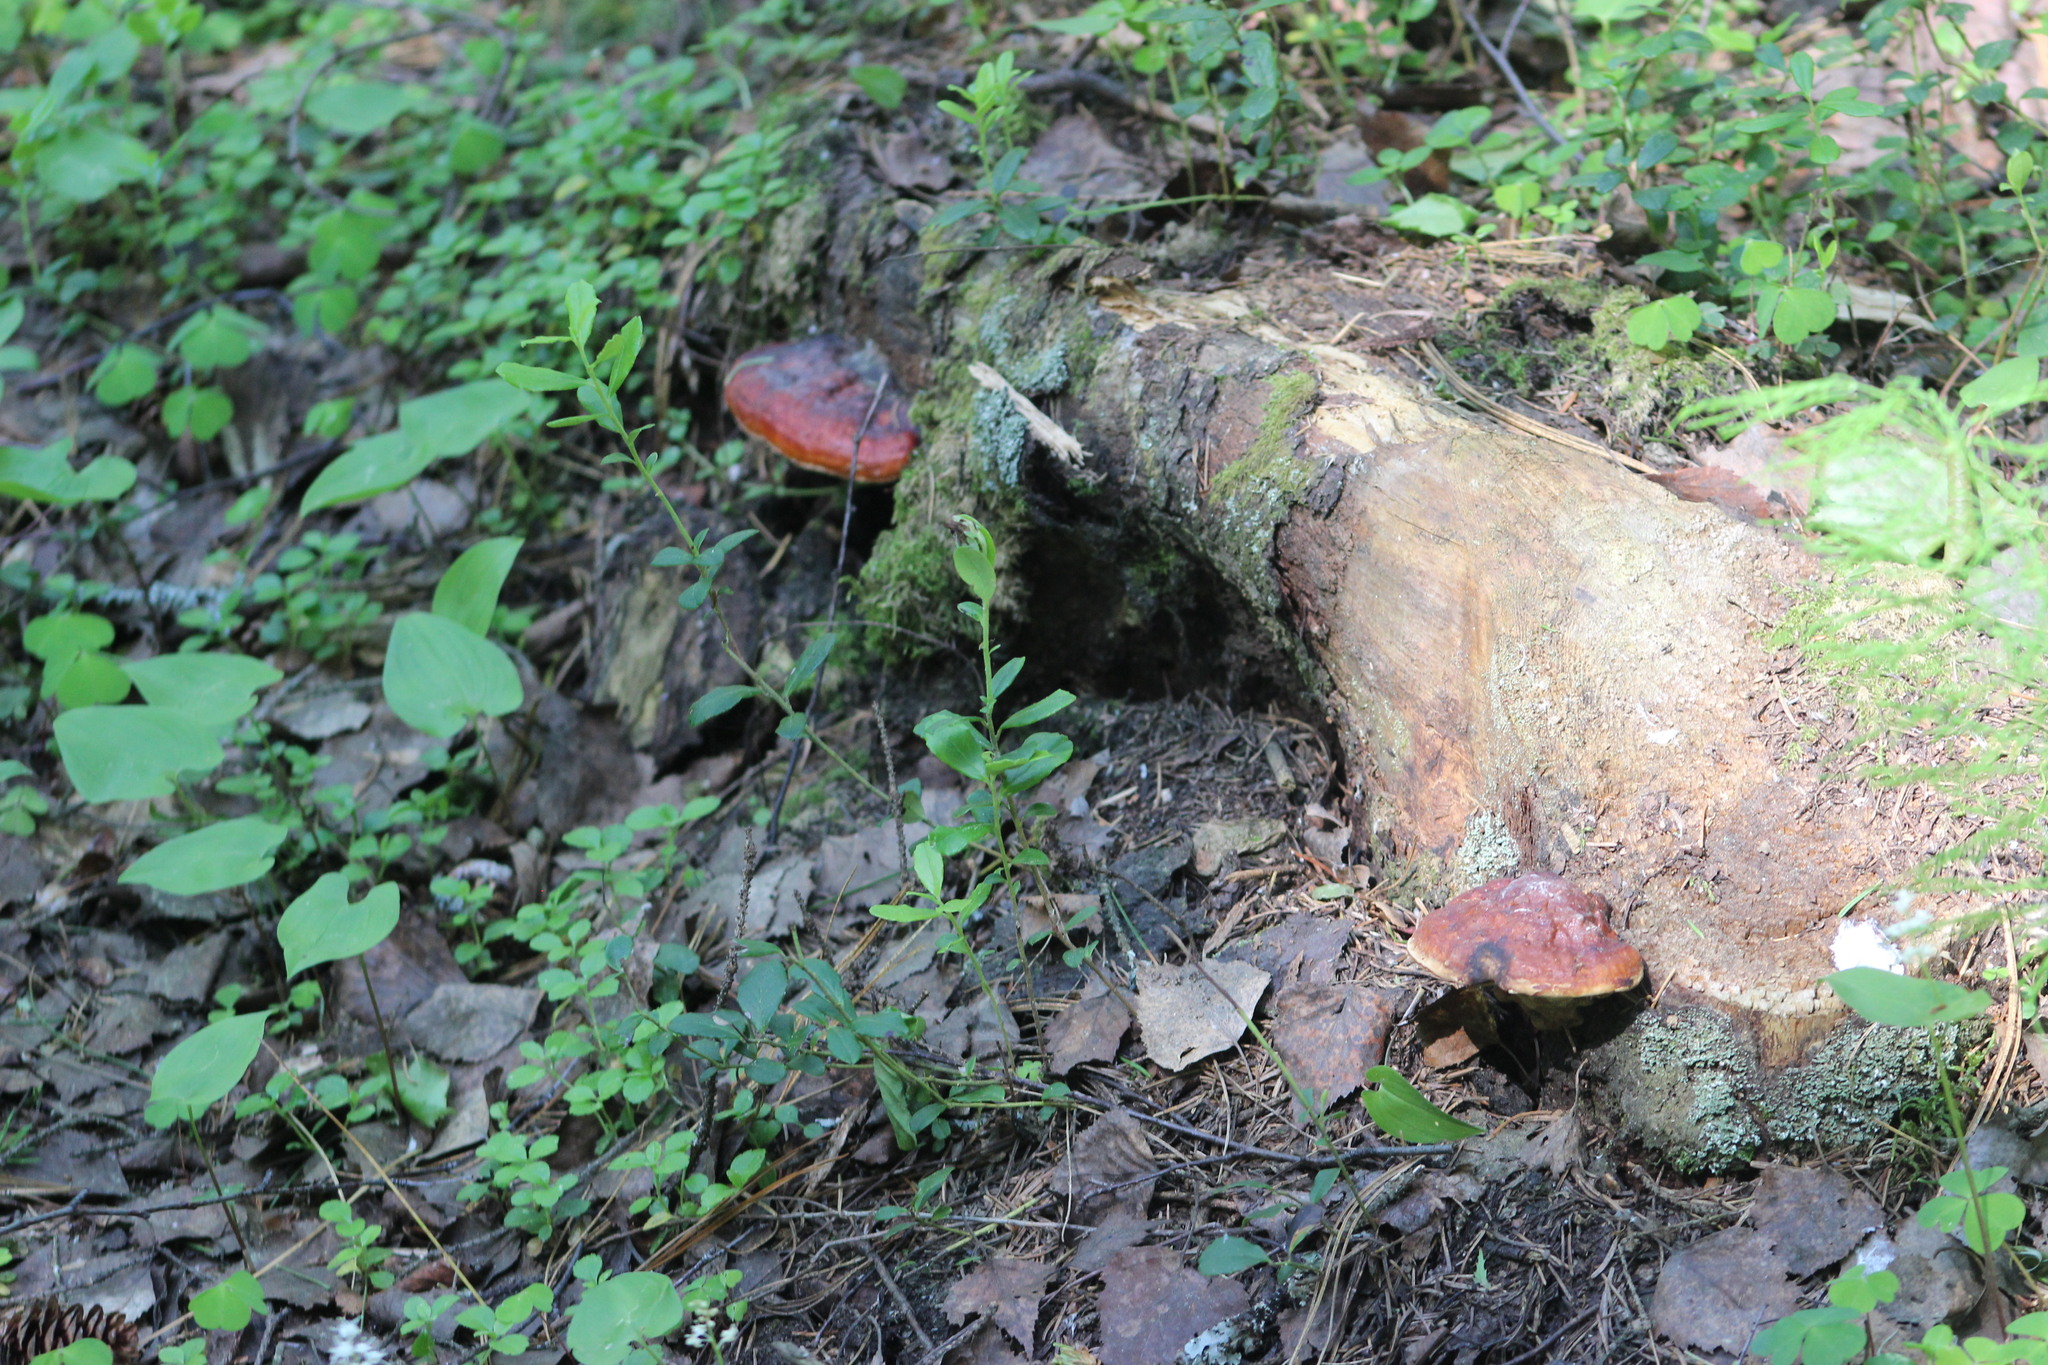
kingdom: Fungi
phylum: Basidiomycota
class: Agaricomycetes
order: Polyporales
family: Fomitopsidaceae
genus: Fomitopsis
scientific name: Fomitopsis pinicola
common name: Red-belted bracket
